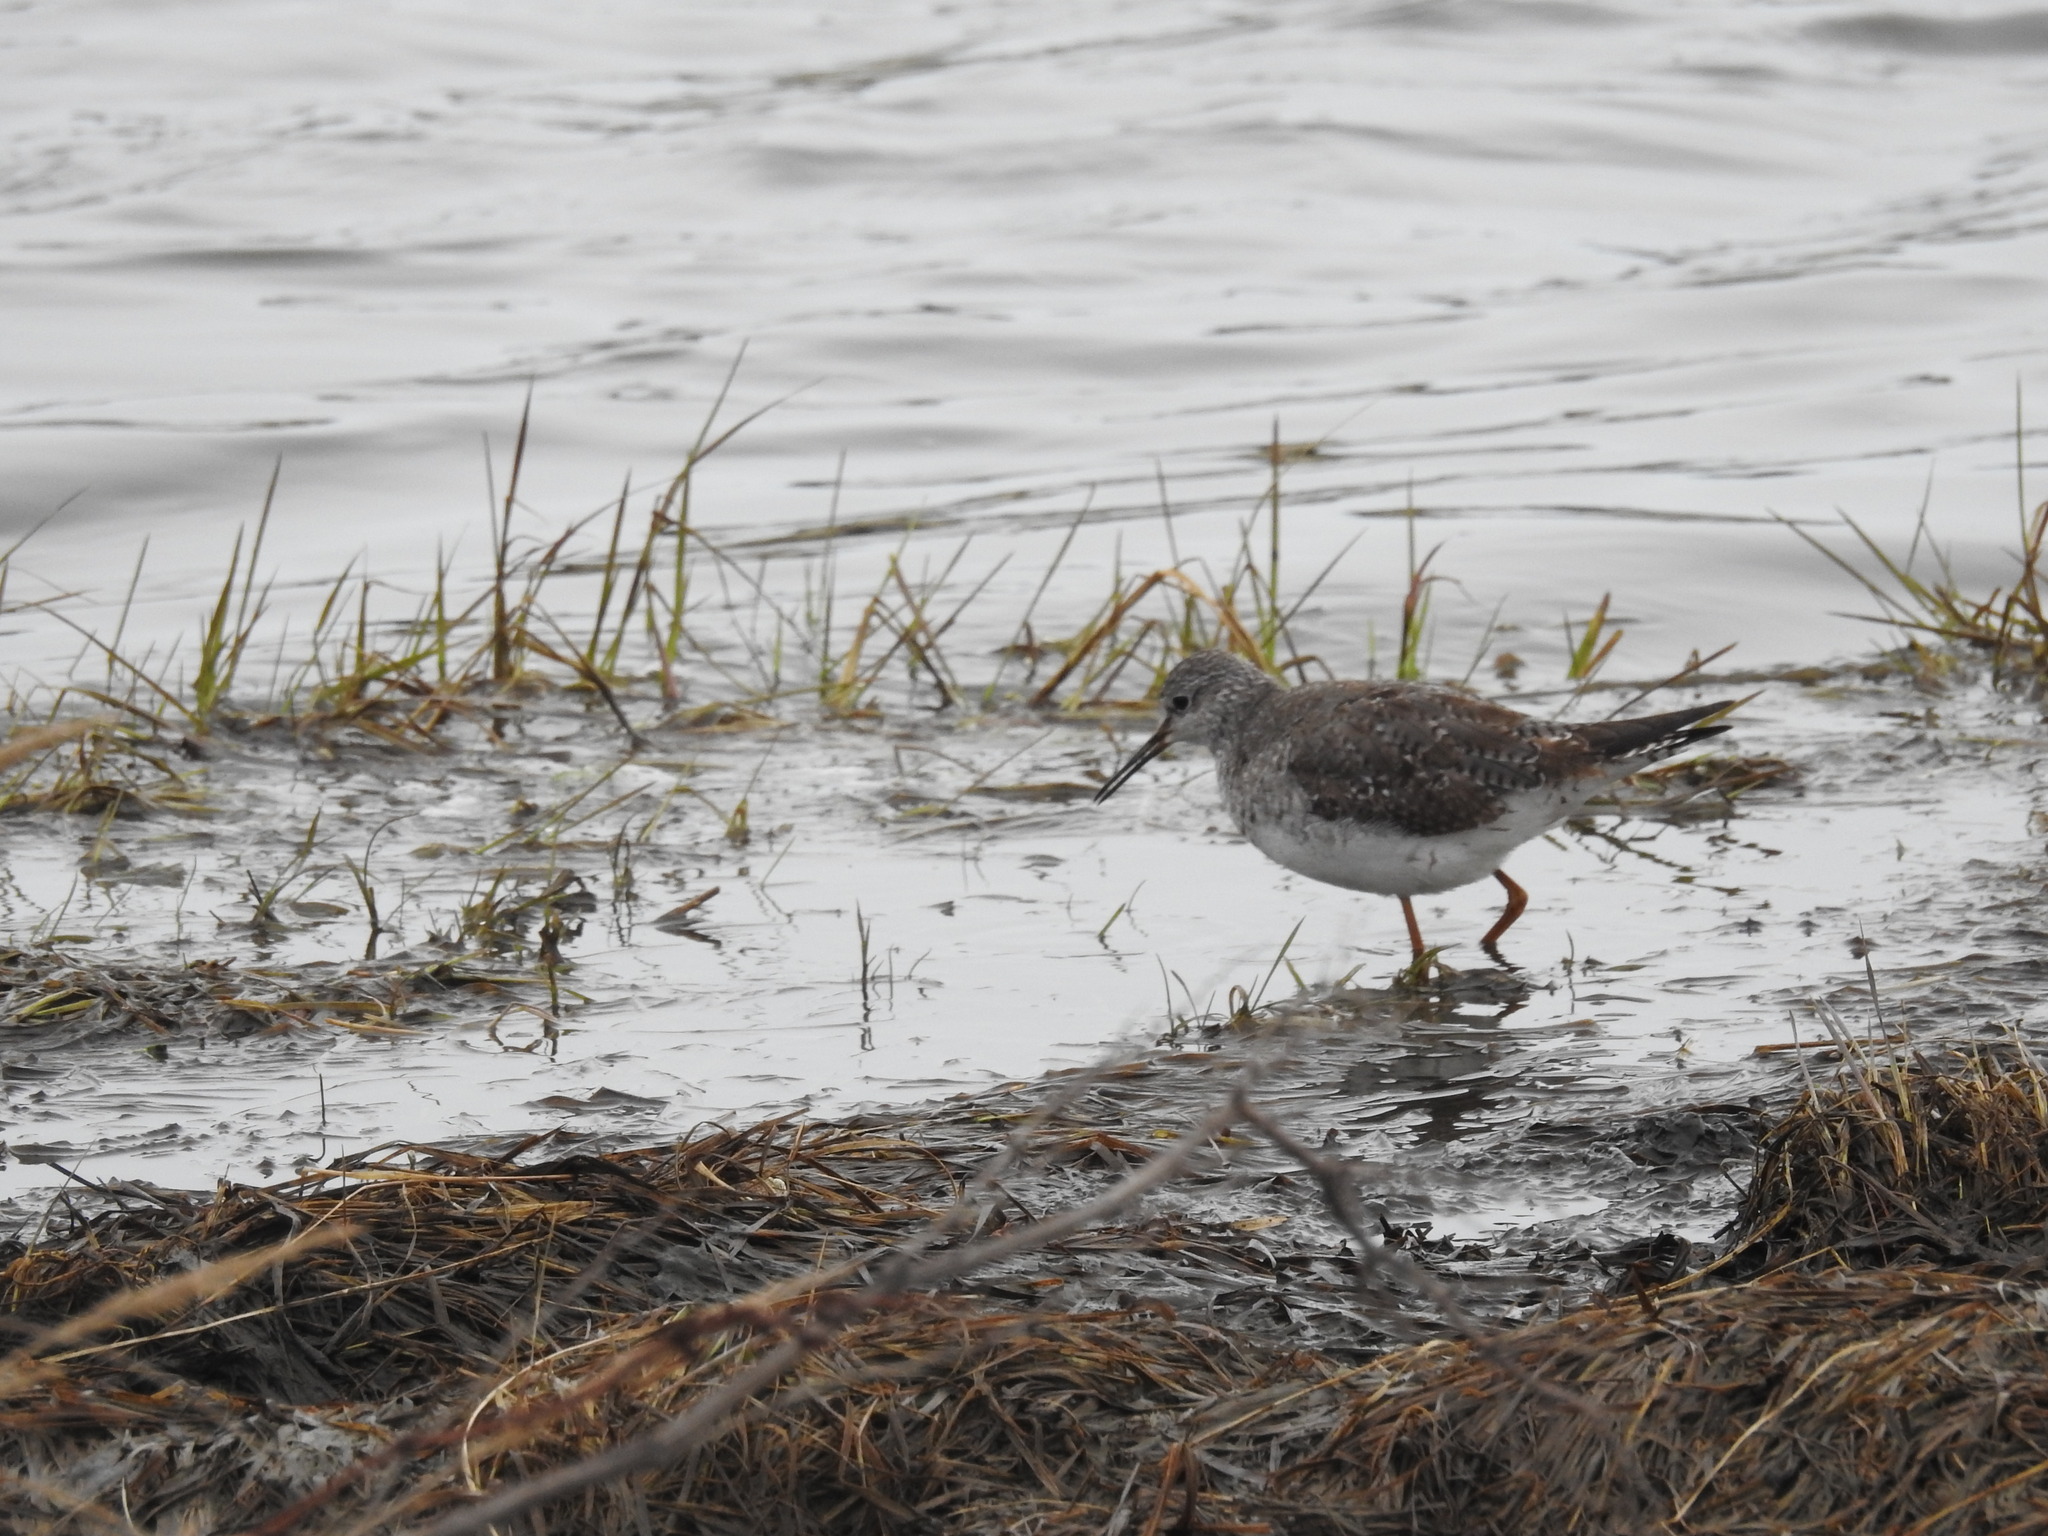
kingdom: Animalia
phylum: Chordata
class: Aves
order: Charadriiformes
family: Scolopacidae
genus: Tringa
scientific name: Tringa flavipes
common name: Lesser yellowlegs
